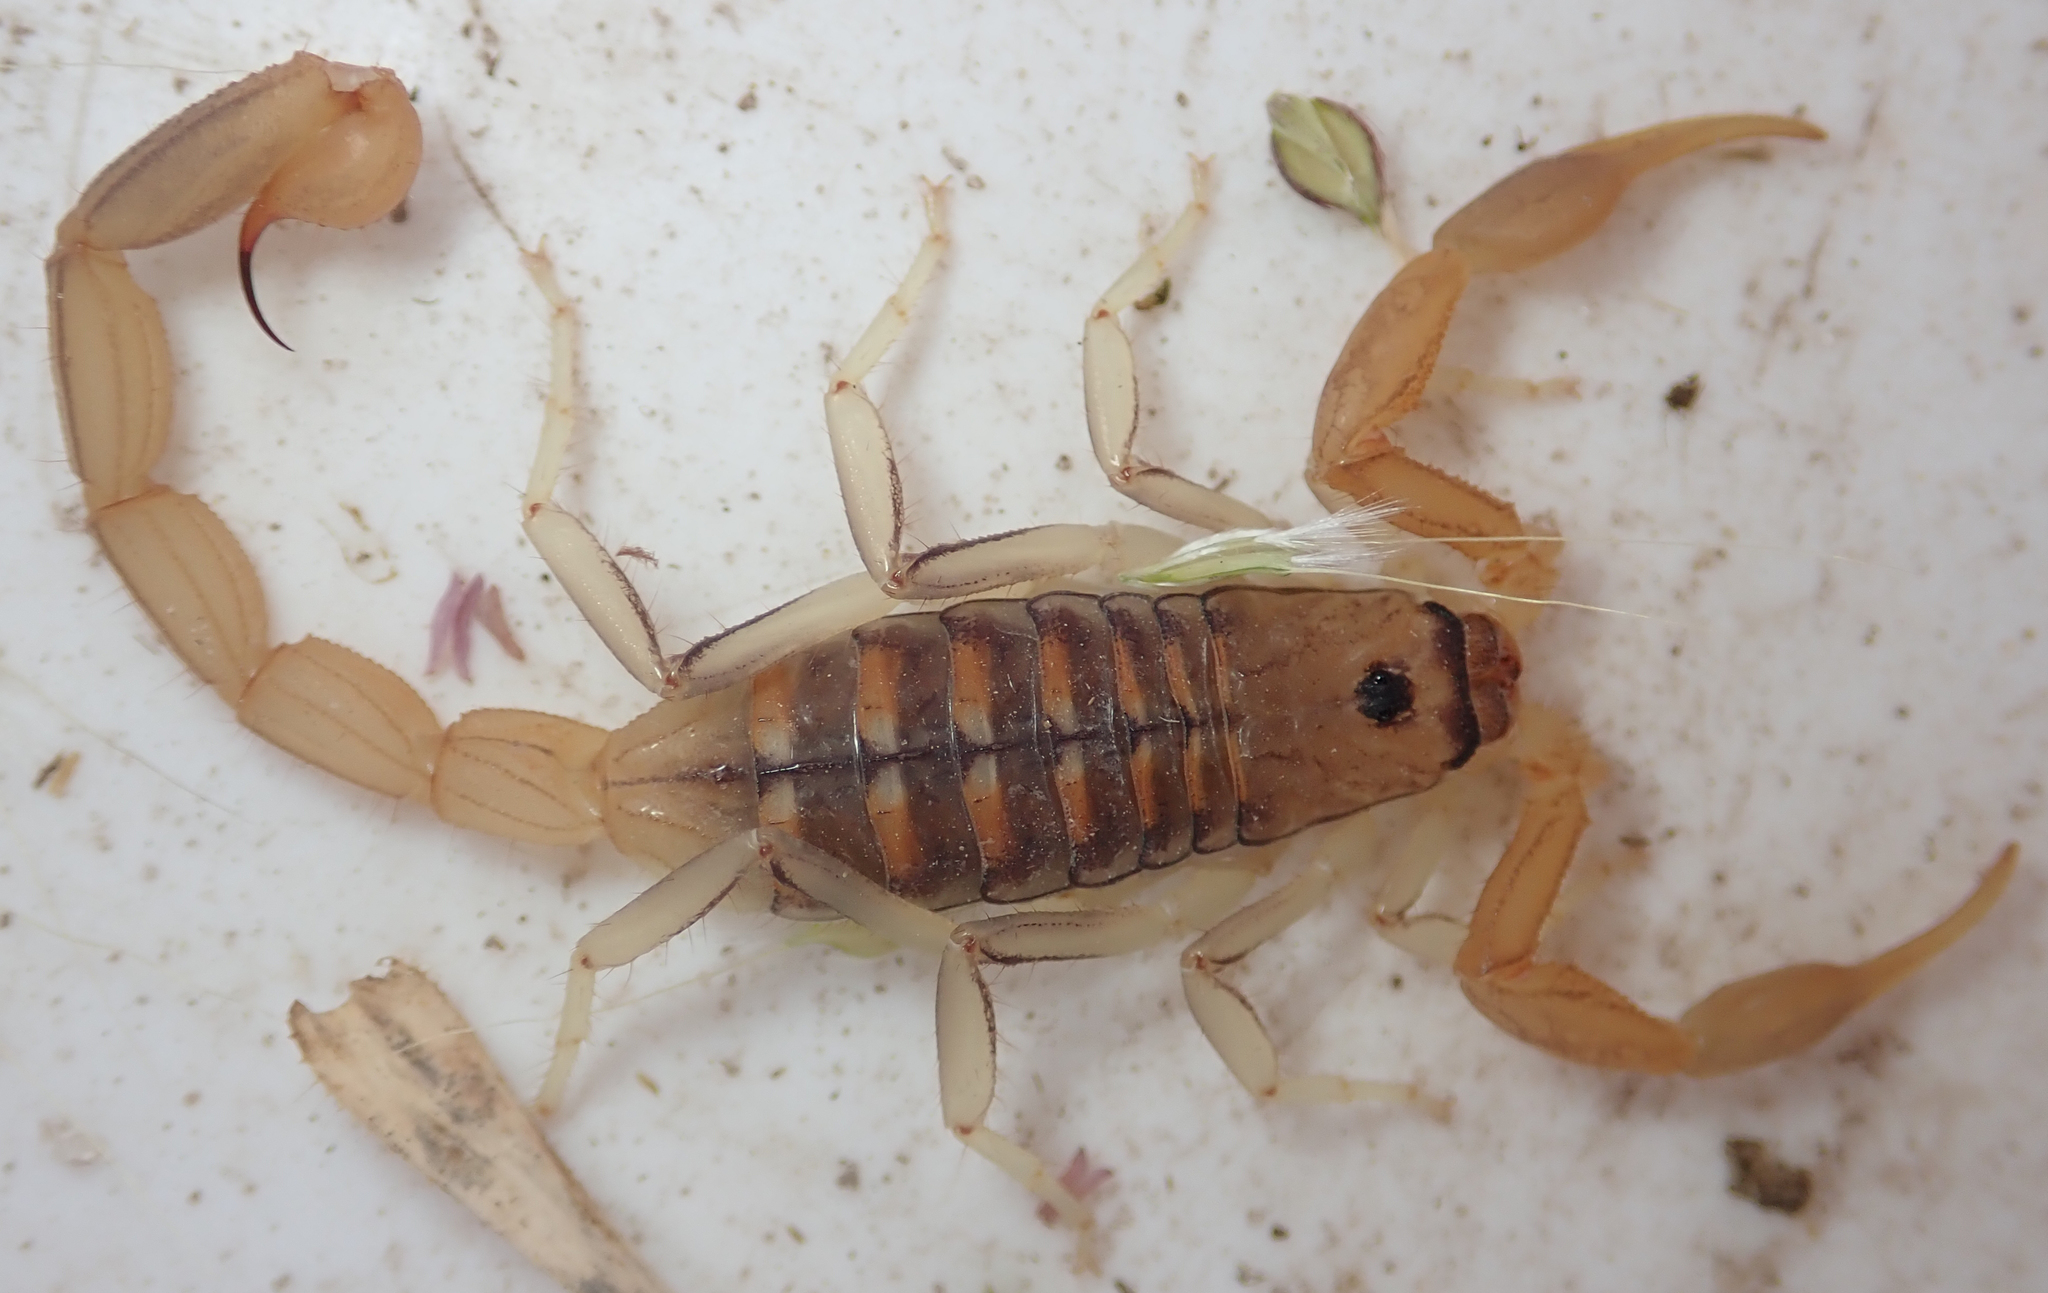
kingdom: Animalia
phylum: Arthropoda
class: Arachnida
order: Scorpiones
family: Buthidae
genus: Uroplectes
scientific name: Uroplectes planimanus
